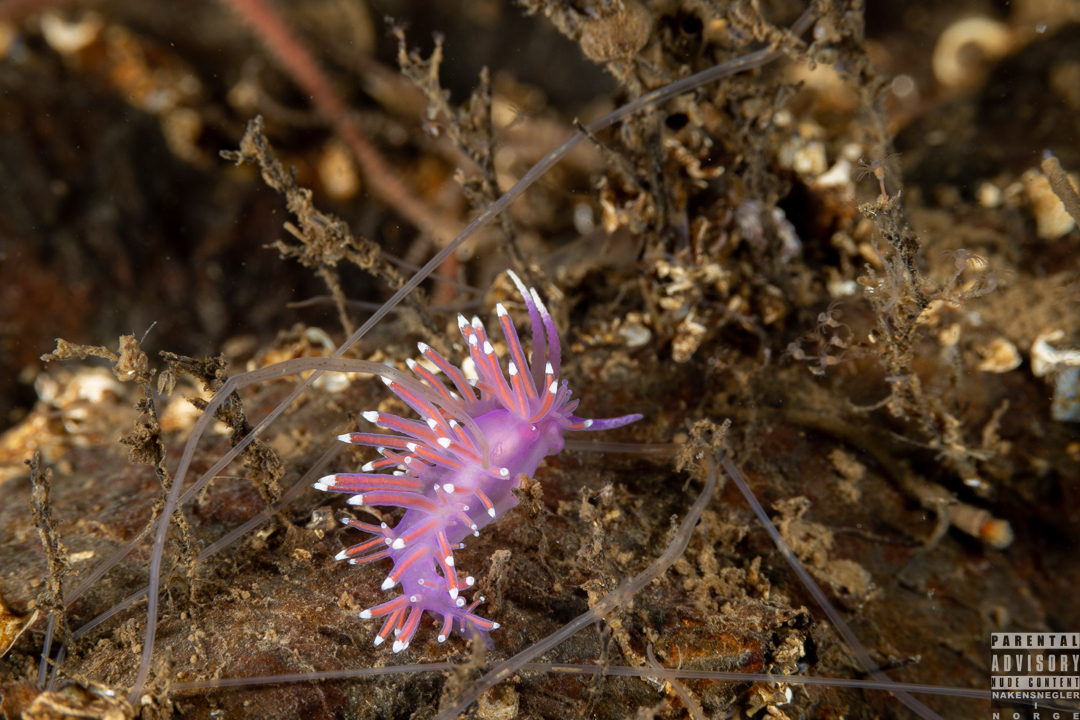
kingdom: Animalia
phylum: Mollusca
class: Gastropoda
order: Nudibranchia
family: Flabellinidae
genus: Edmundsella
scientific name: Edmundsella pedata
